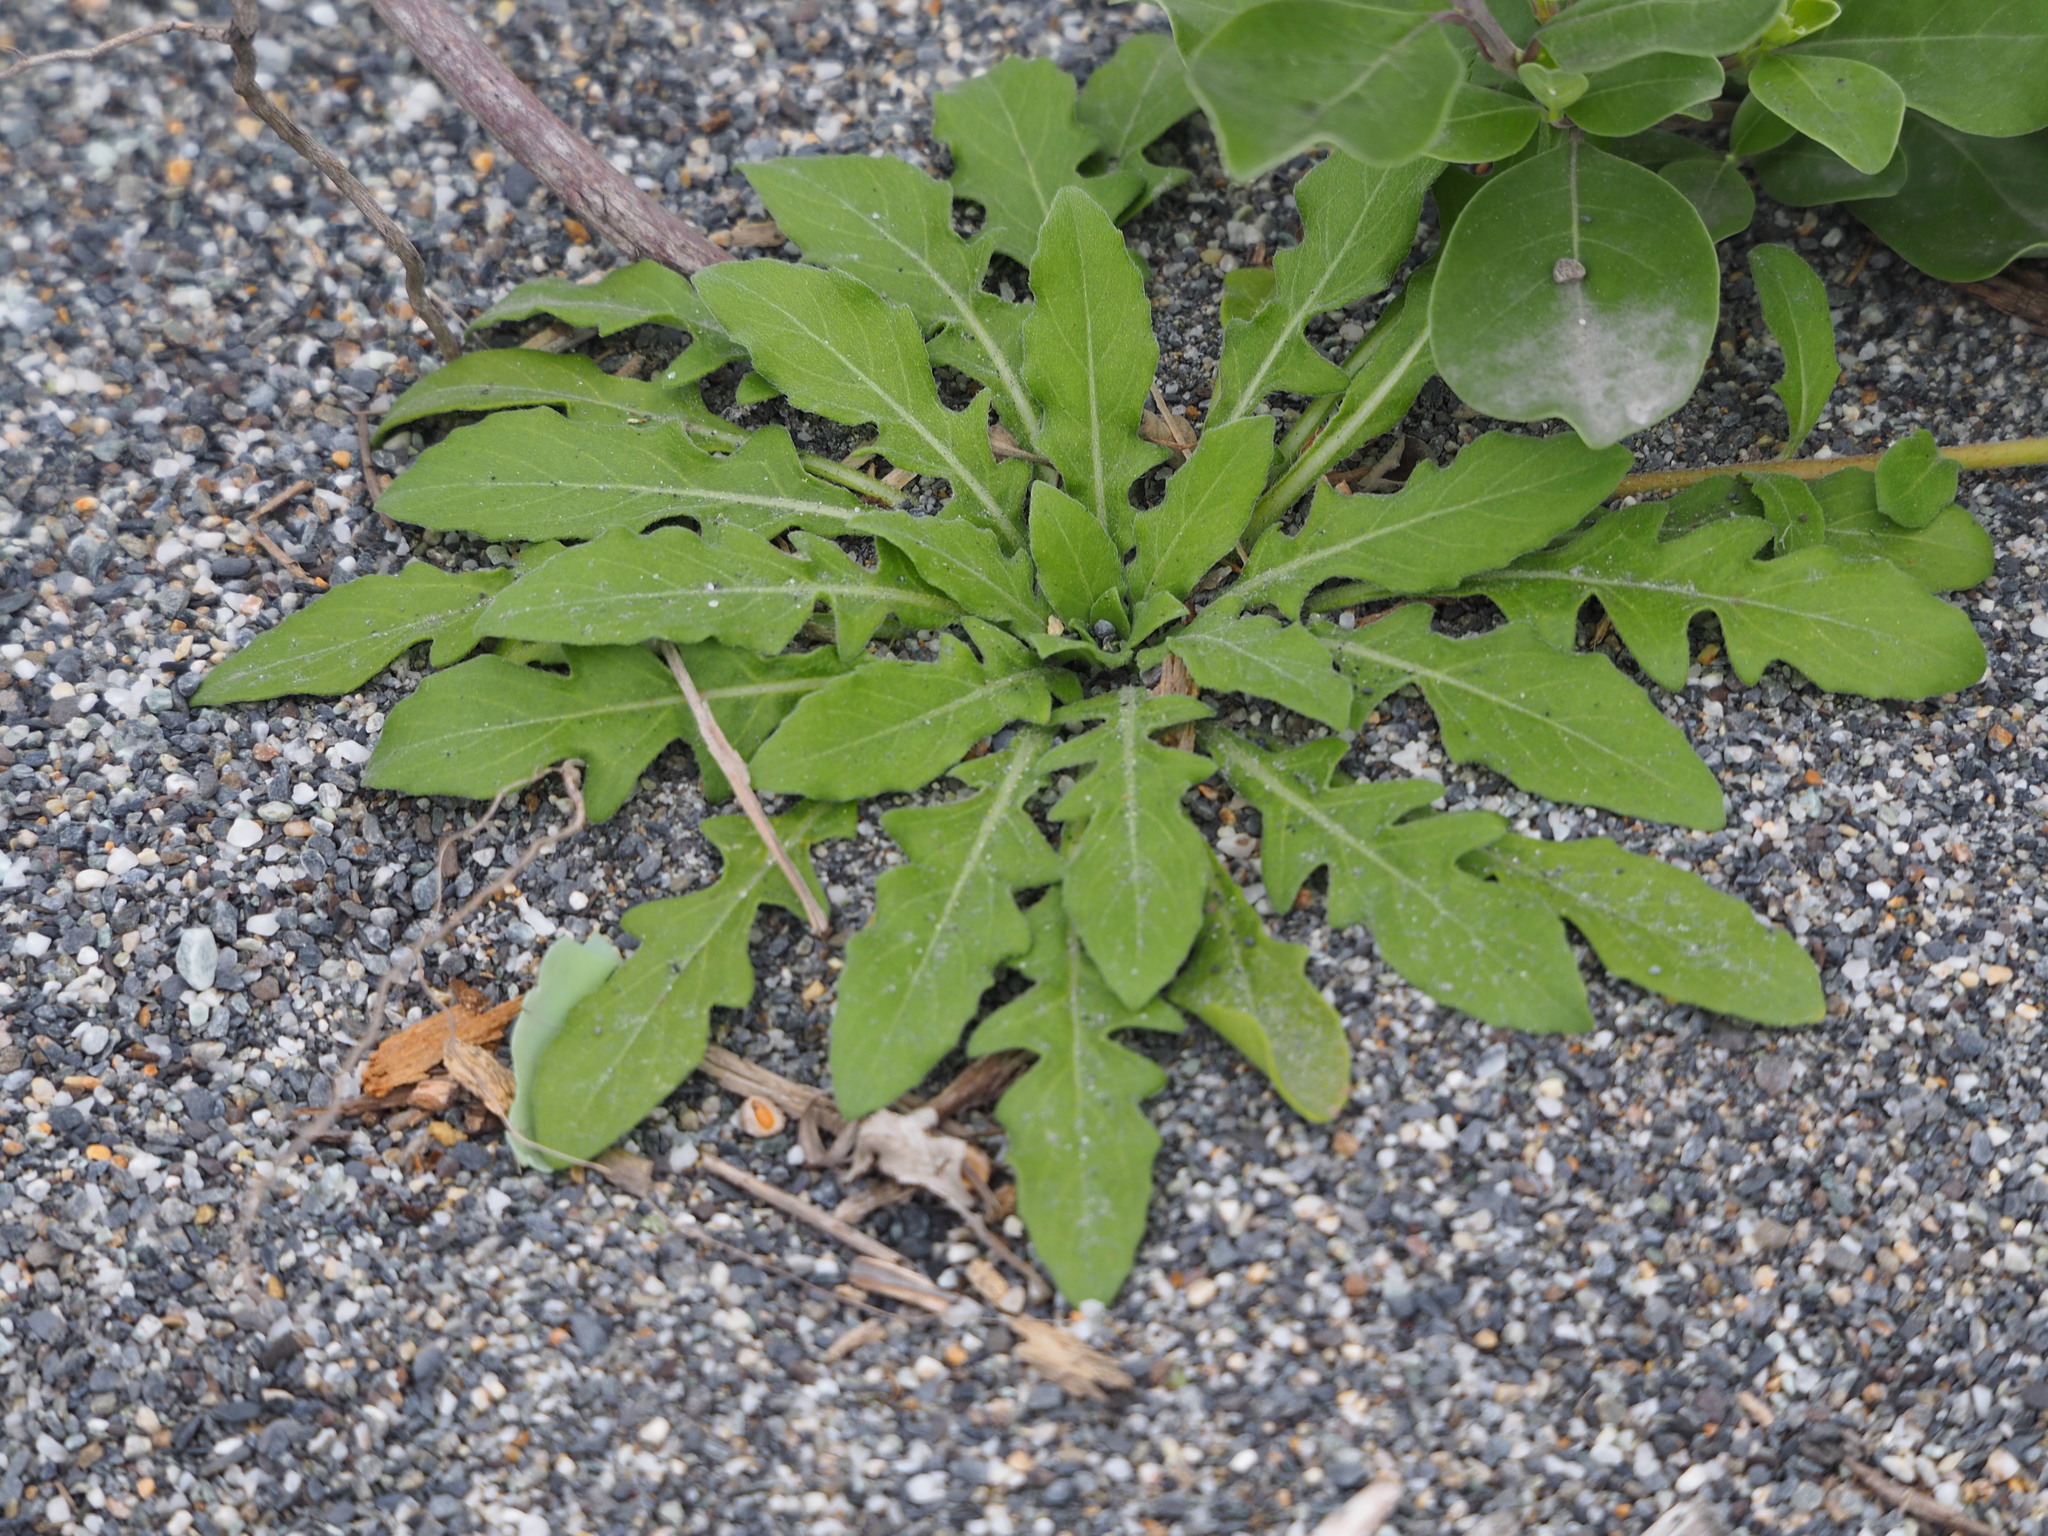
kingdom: Plantae
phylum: Tracheophyta
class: Magnoliopsida
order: Myrtales
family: Onagraceae
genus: Oenothera
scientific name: Oenothera laciniata
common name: Cut-leaved evening-primrose
